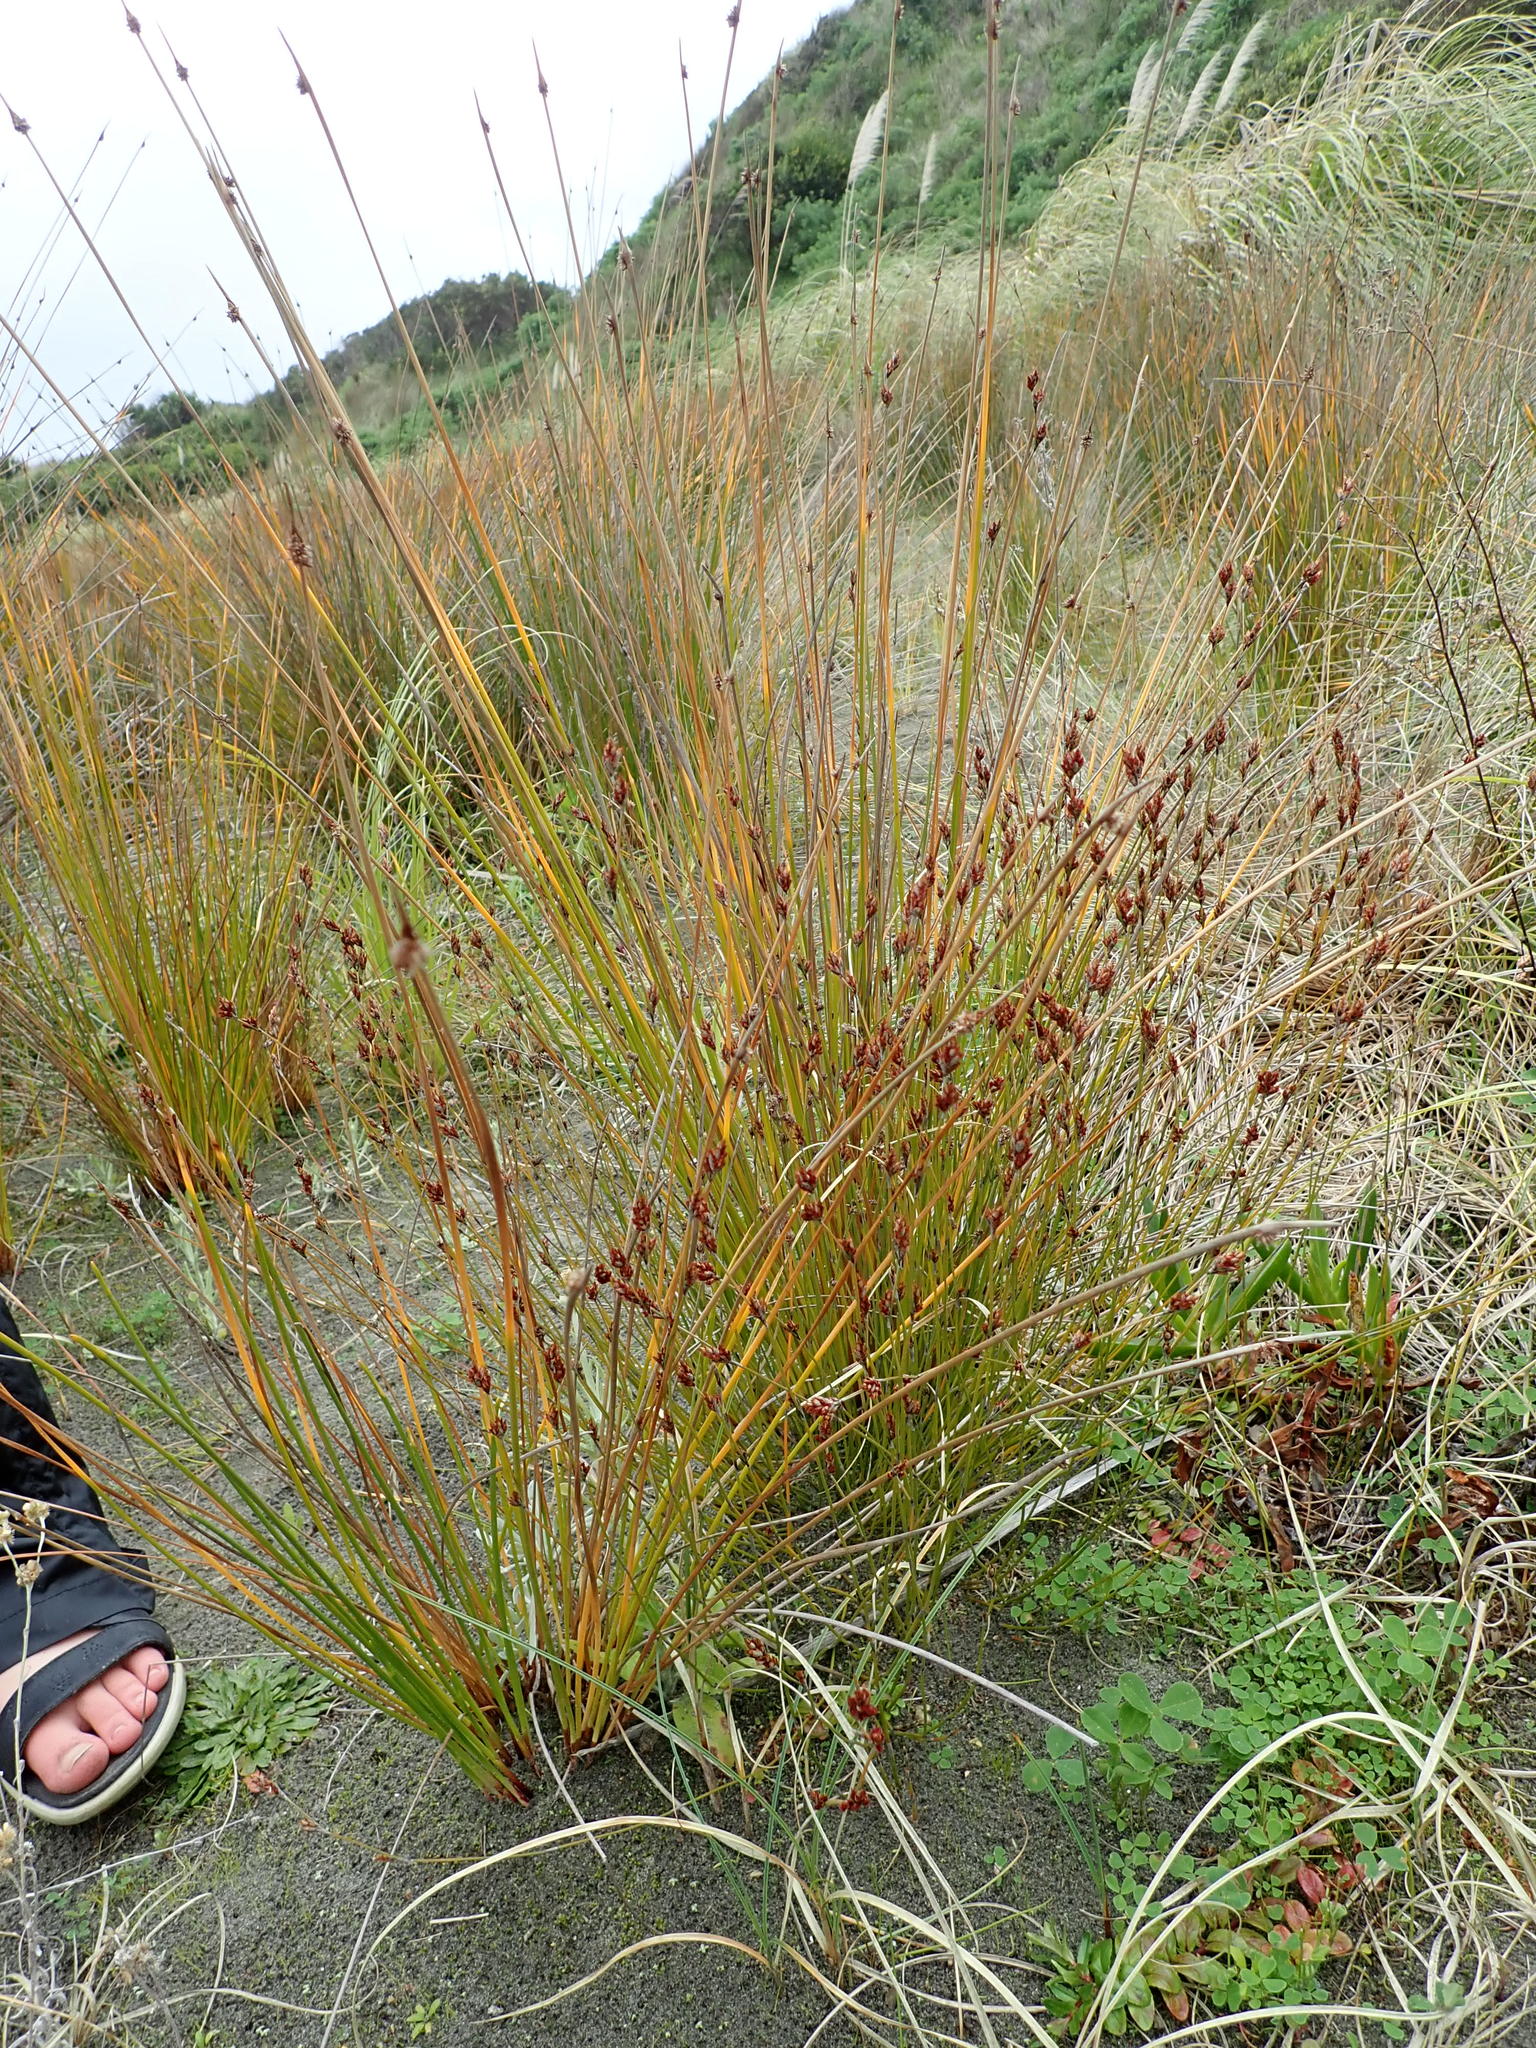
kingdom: Plantae
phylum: Tracheophyta
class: Liliopsida
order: Poales
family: Restionaceae
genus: Apodasmia
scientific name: Apodasmia similis
